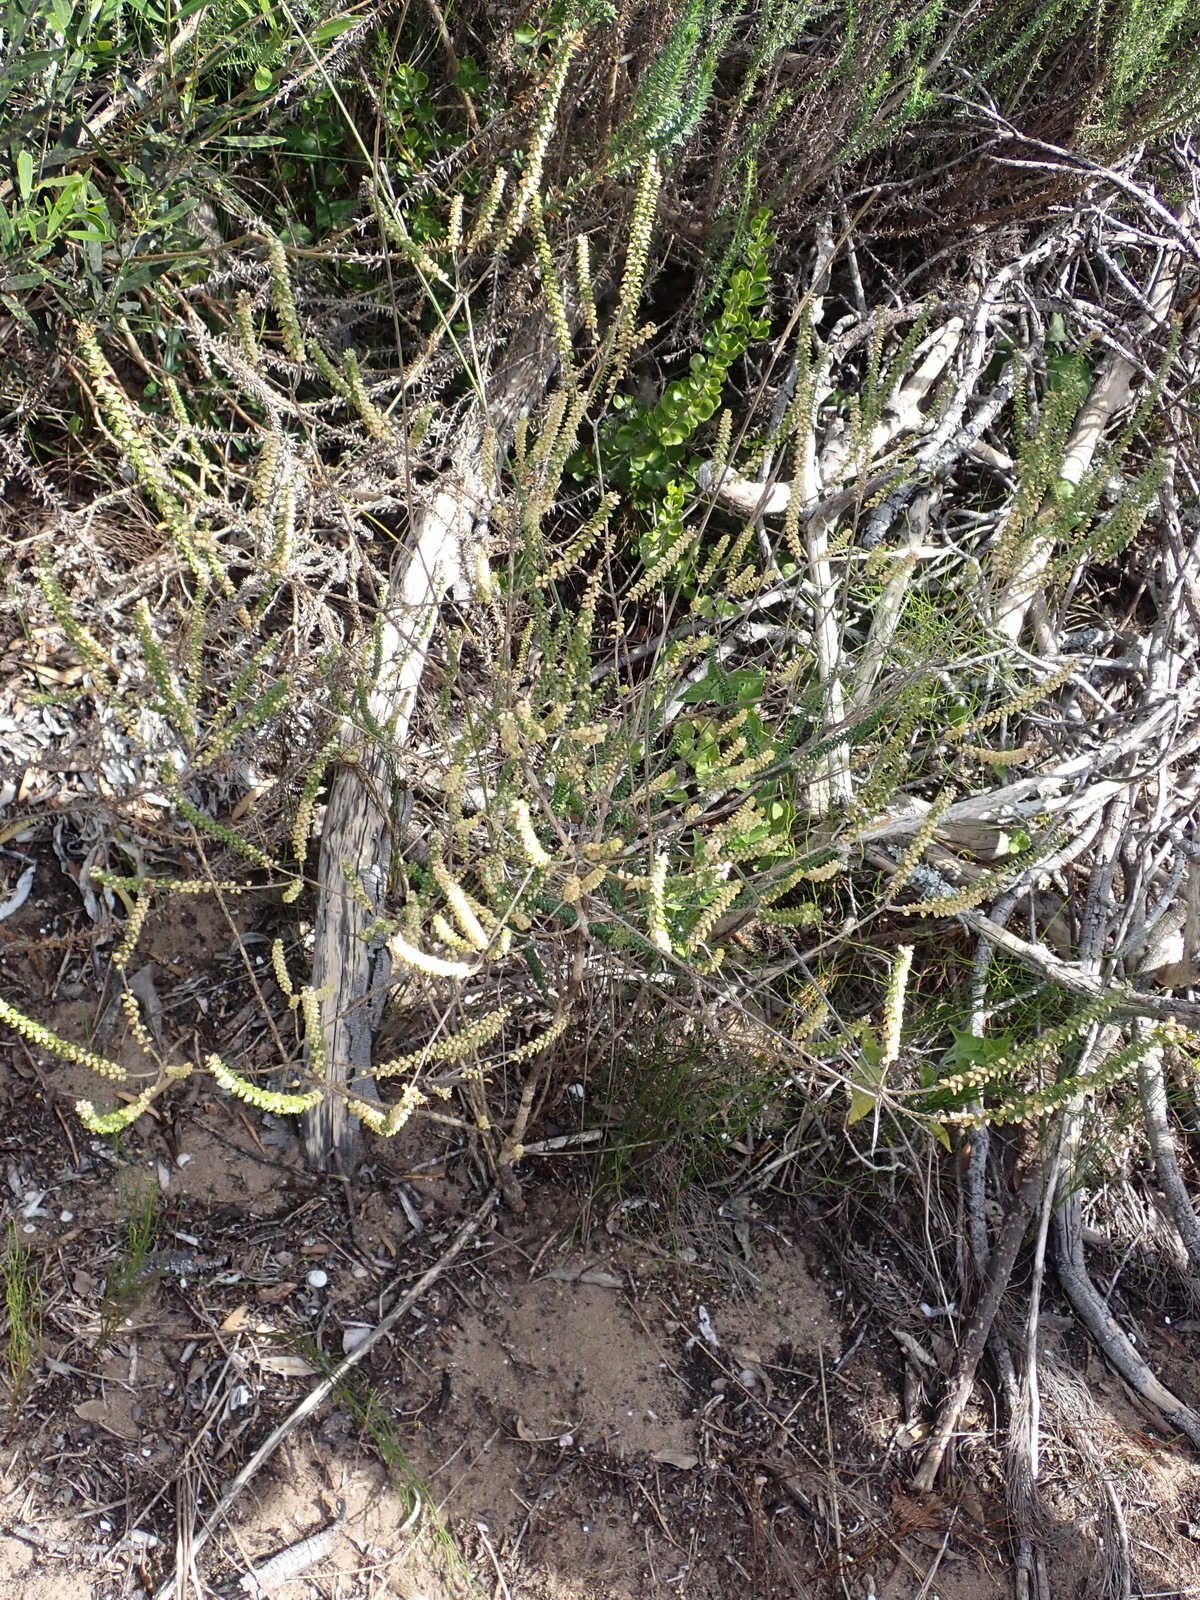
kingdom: Plantae
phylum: Tracheophyta
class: Magnoliopsida
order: Sapindales
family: Rutaceae
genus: Agathosma
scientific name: Agathosma muirii
